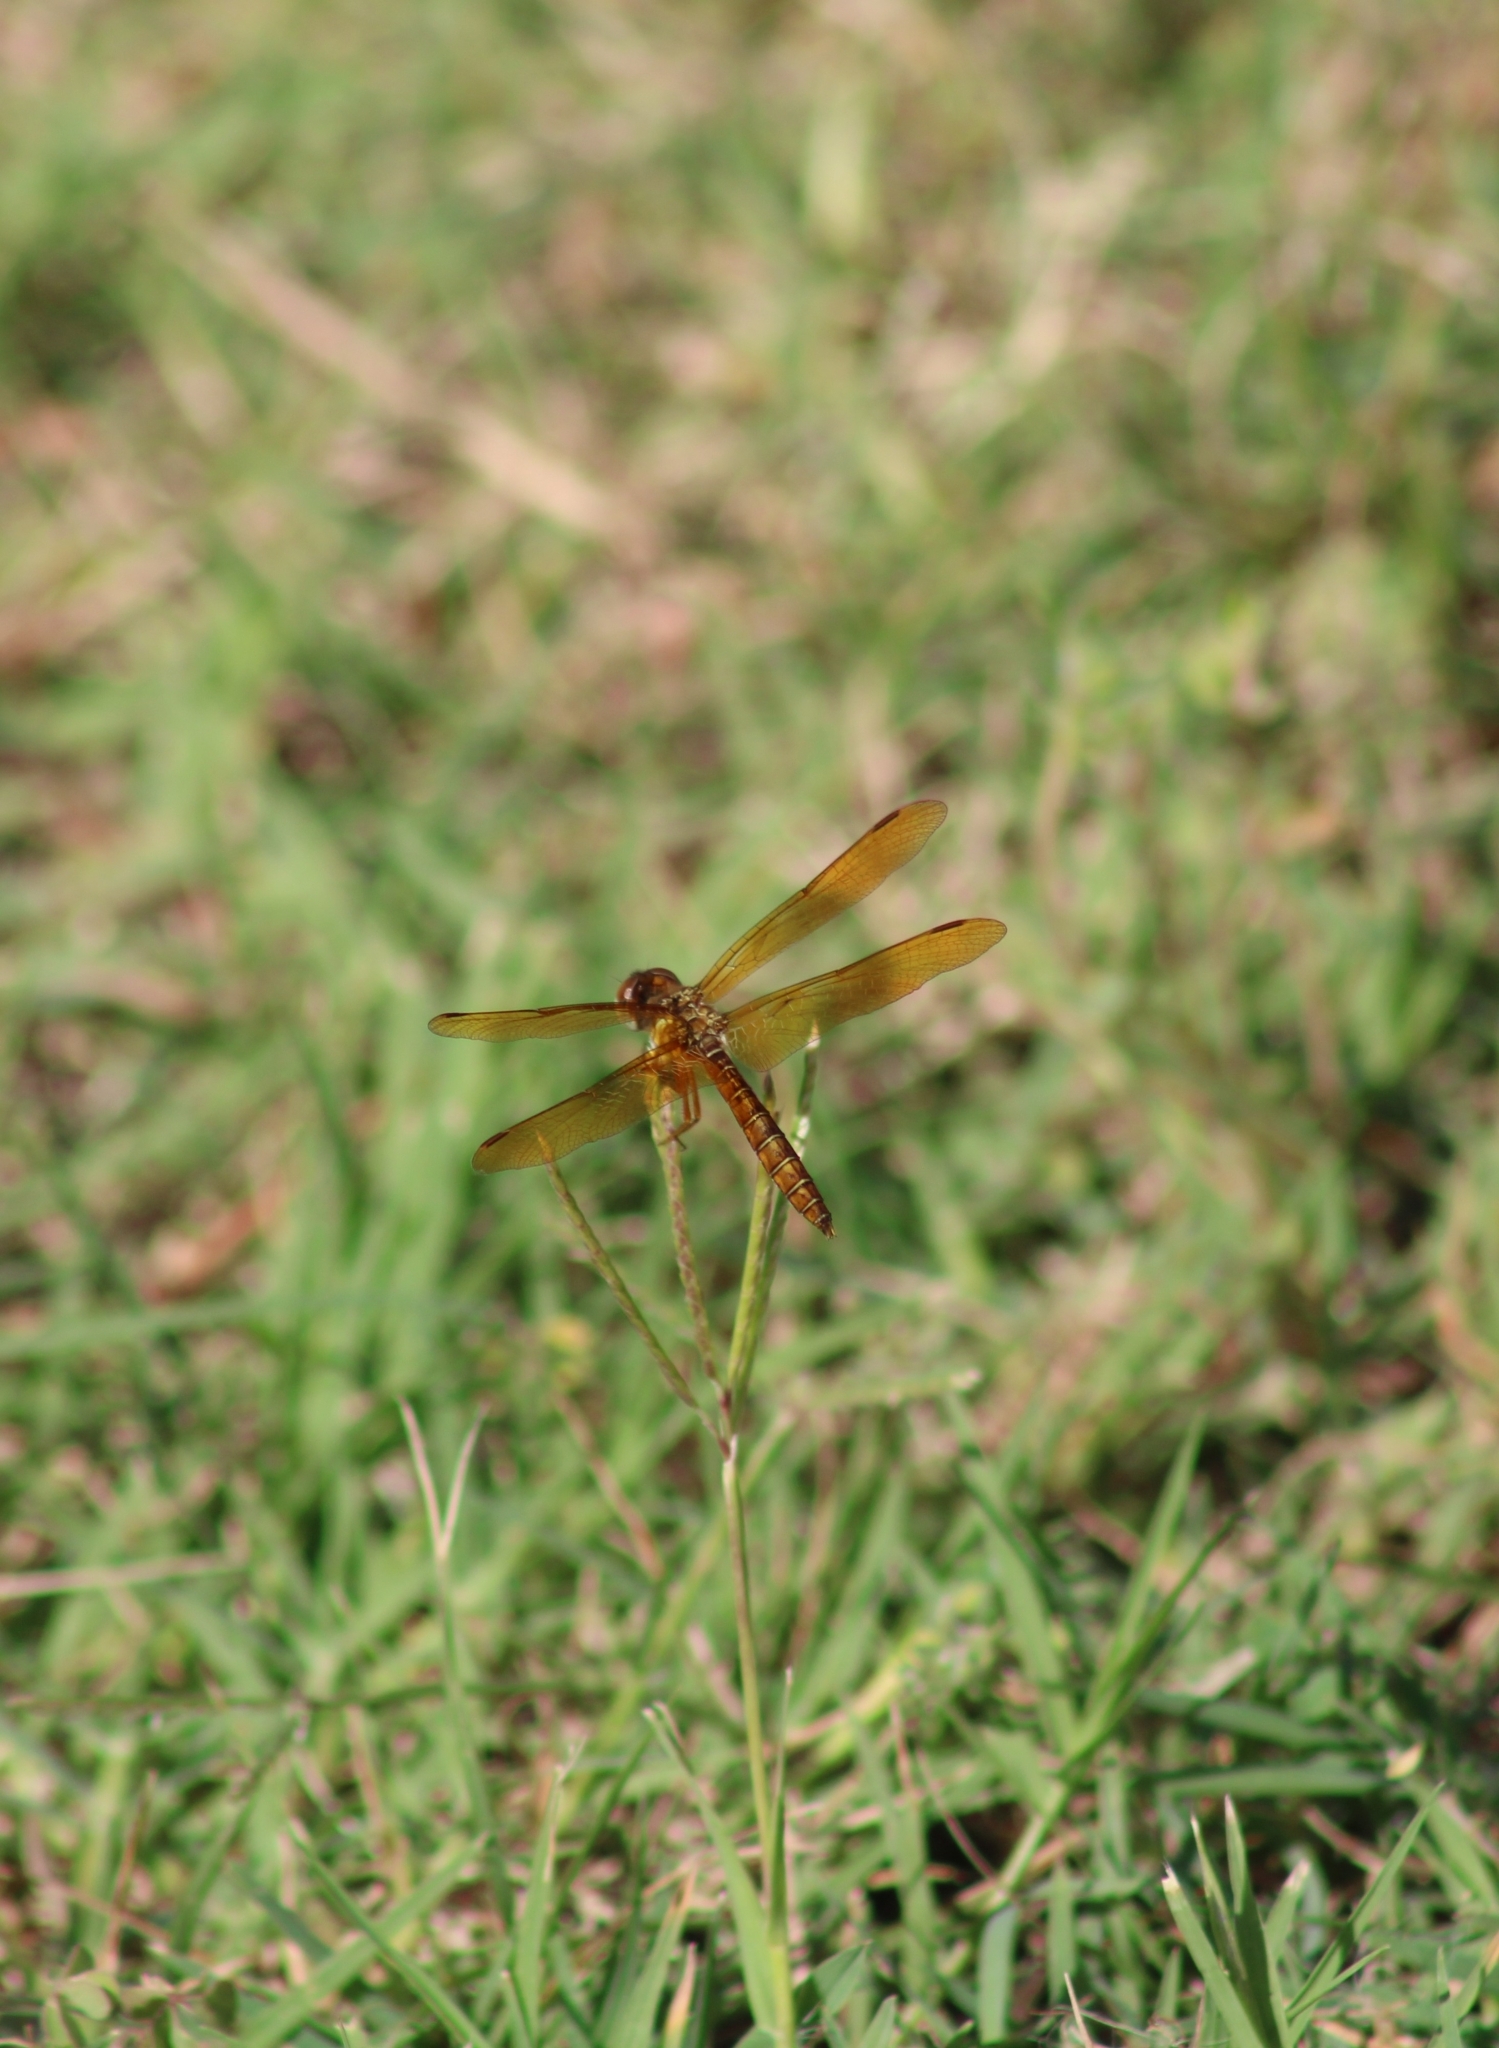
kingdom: Animalia
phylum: Arthropoda
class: Insecta
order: Odonata
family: Libellulidae
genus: Perithemis
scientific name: Perithemis tenera
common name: Eastern amberwing
